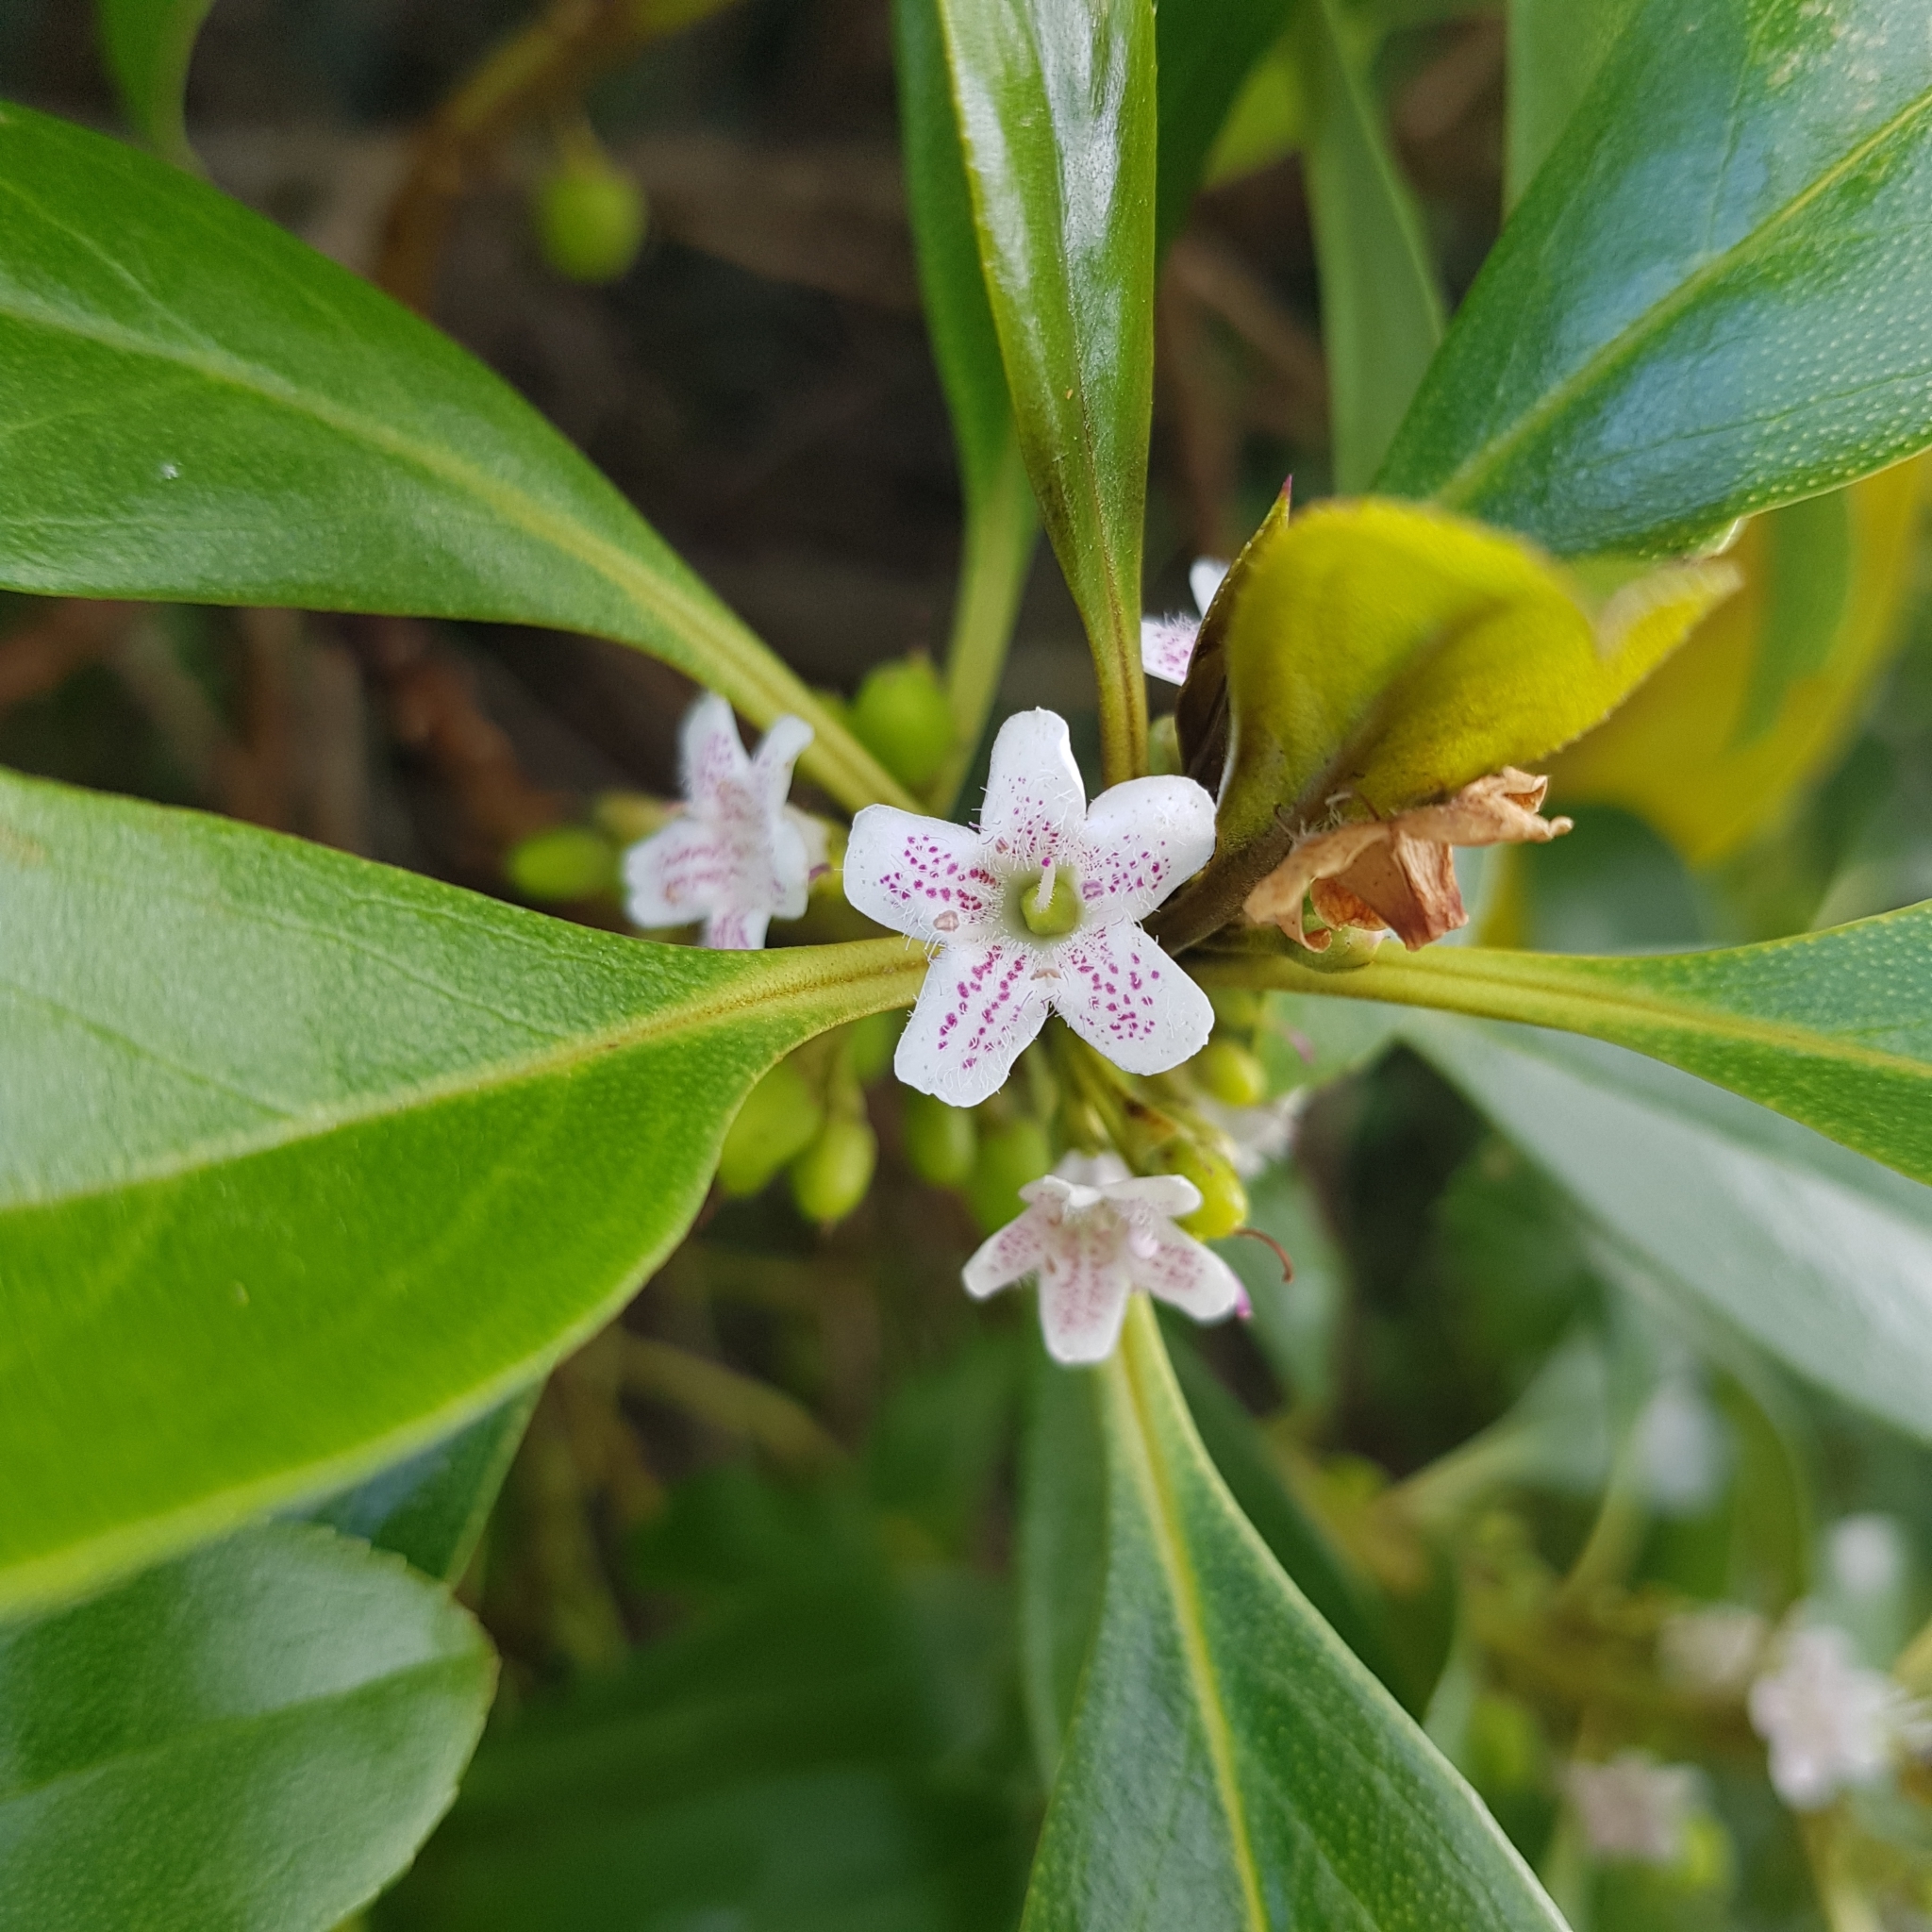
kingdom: Plantae
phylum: Tracheophyta
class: Magnoliopsida
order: Lamiales
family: Scrophulariaceae
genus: Myoporum
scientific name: Myoporum laetum
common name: Ngaio tree
